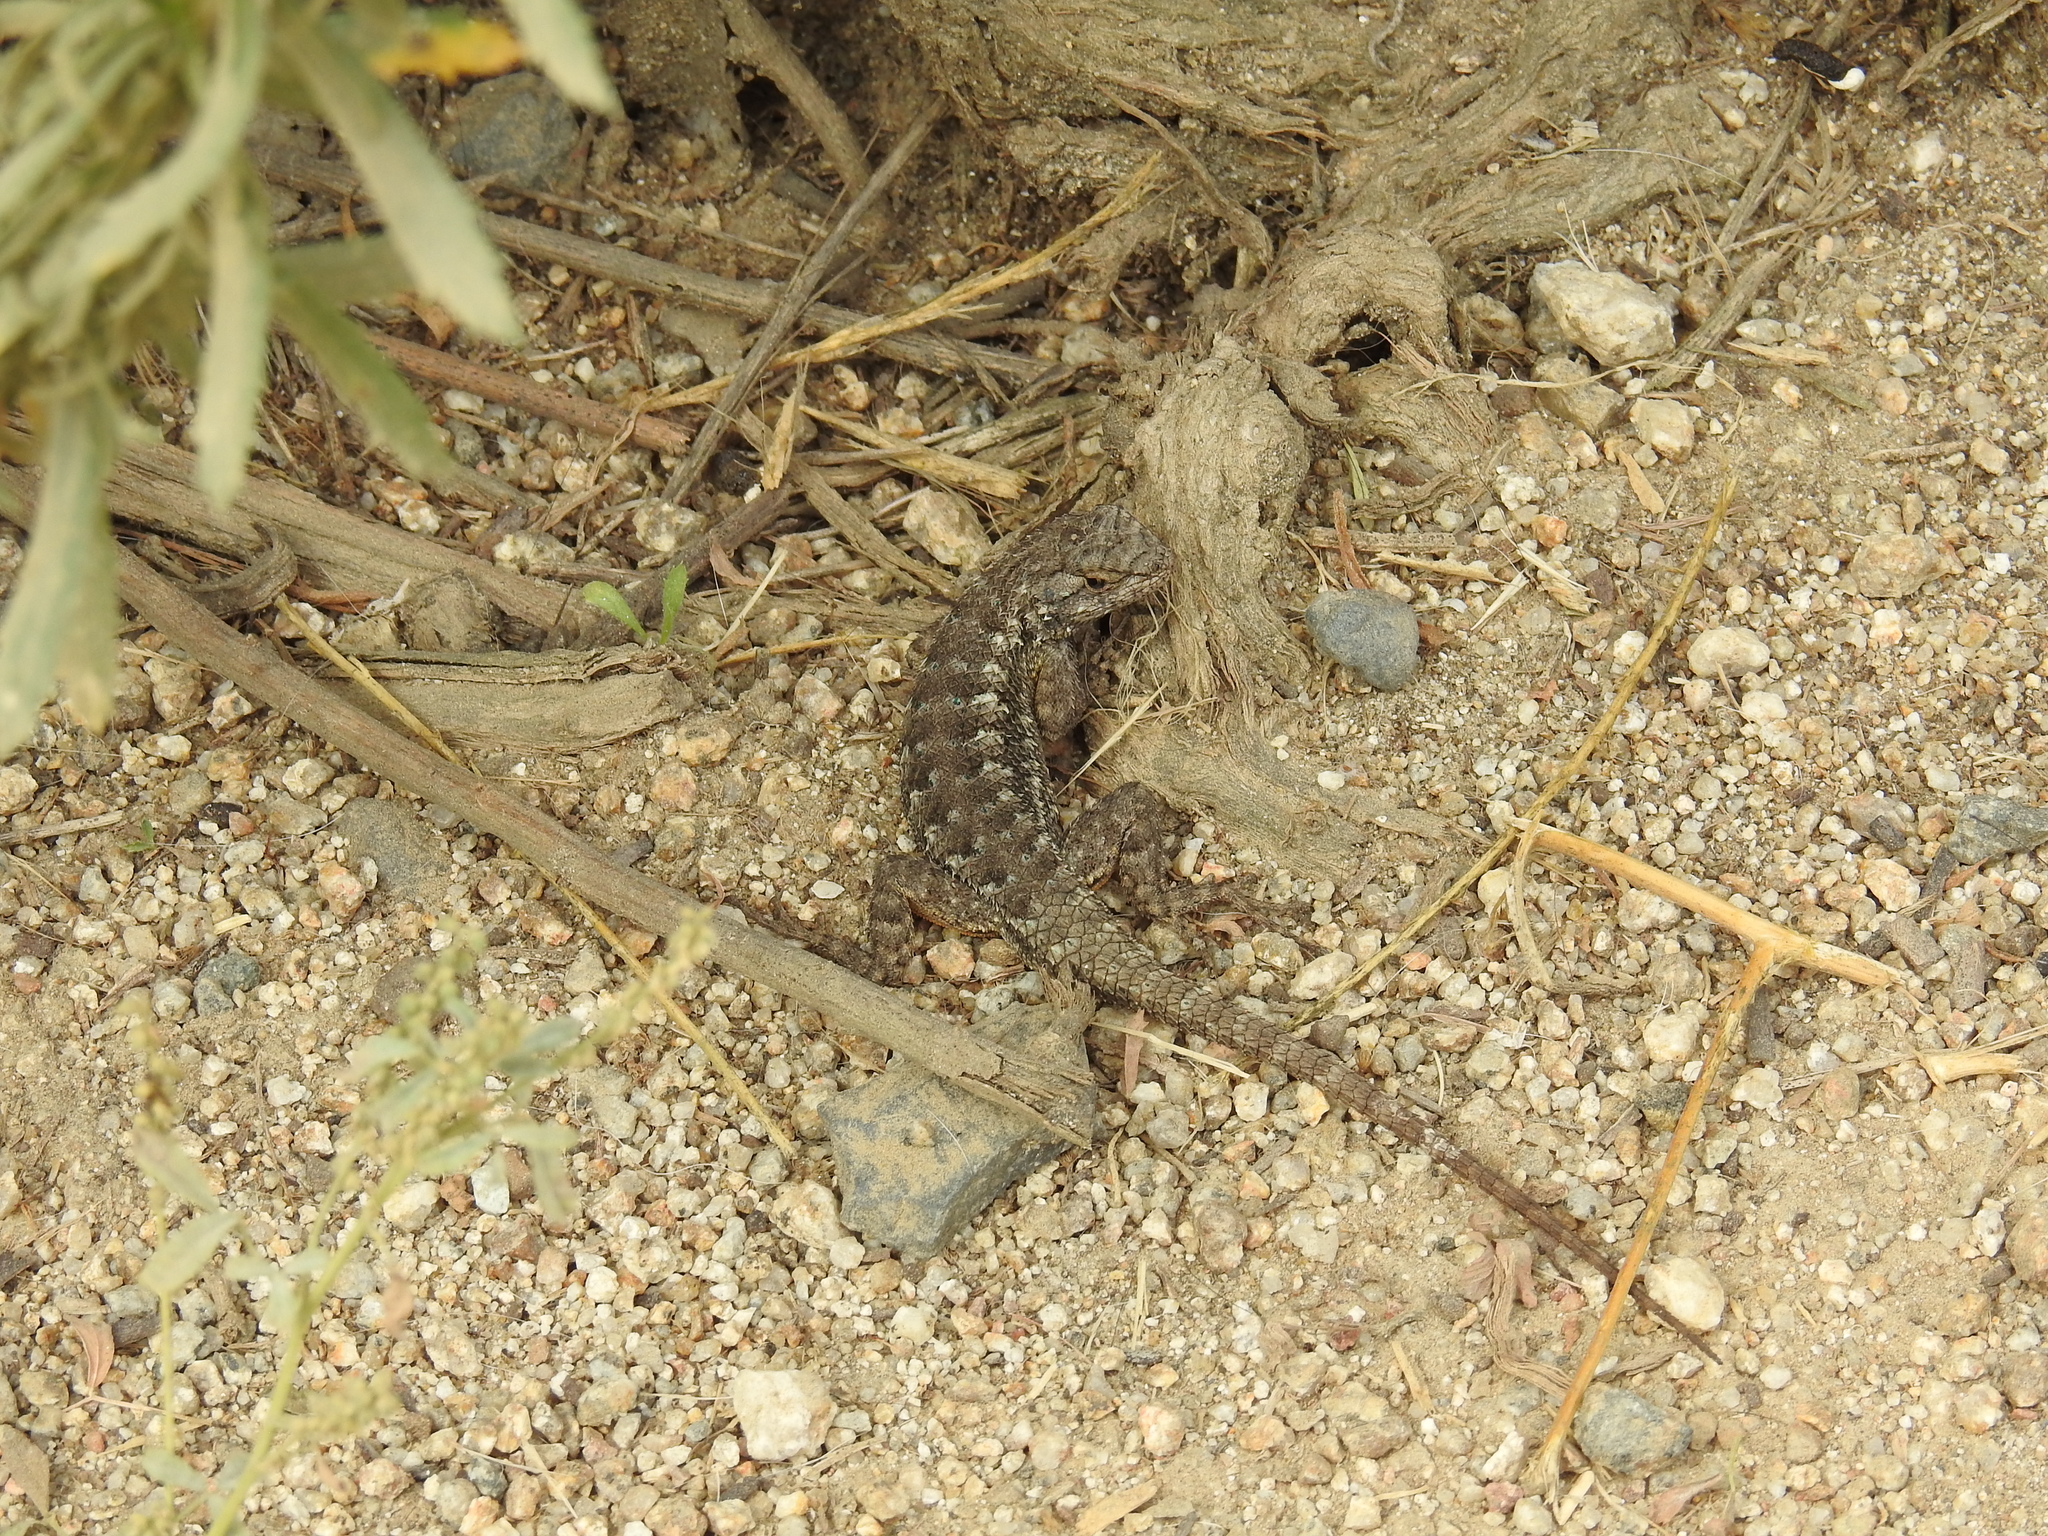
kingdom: Animalia
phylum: Chordata
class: Squamata
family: Phrynosomatidae
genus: Sceloporus
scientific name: Sceloporus occidentalis
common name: Western fence lizard
